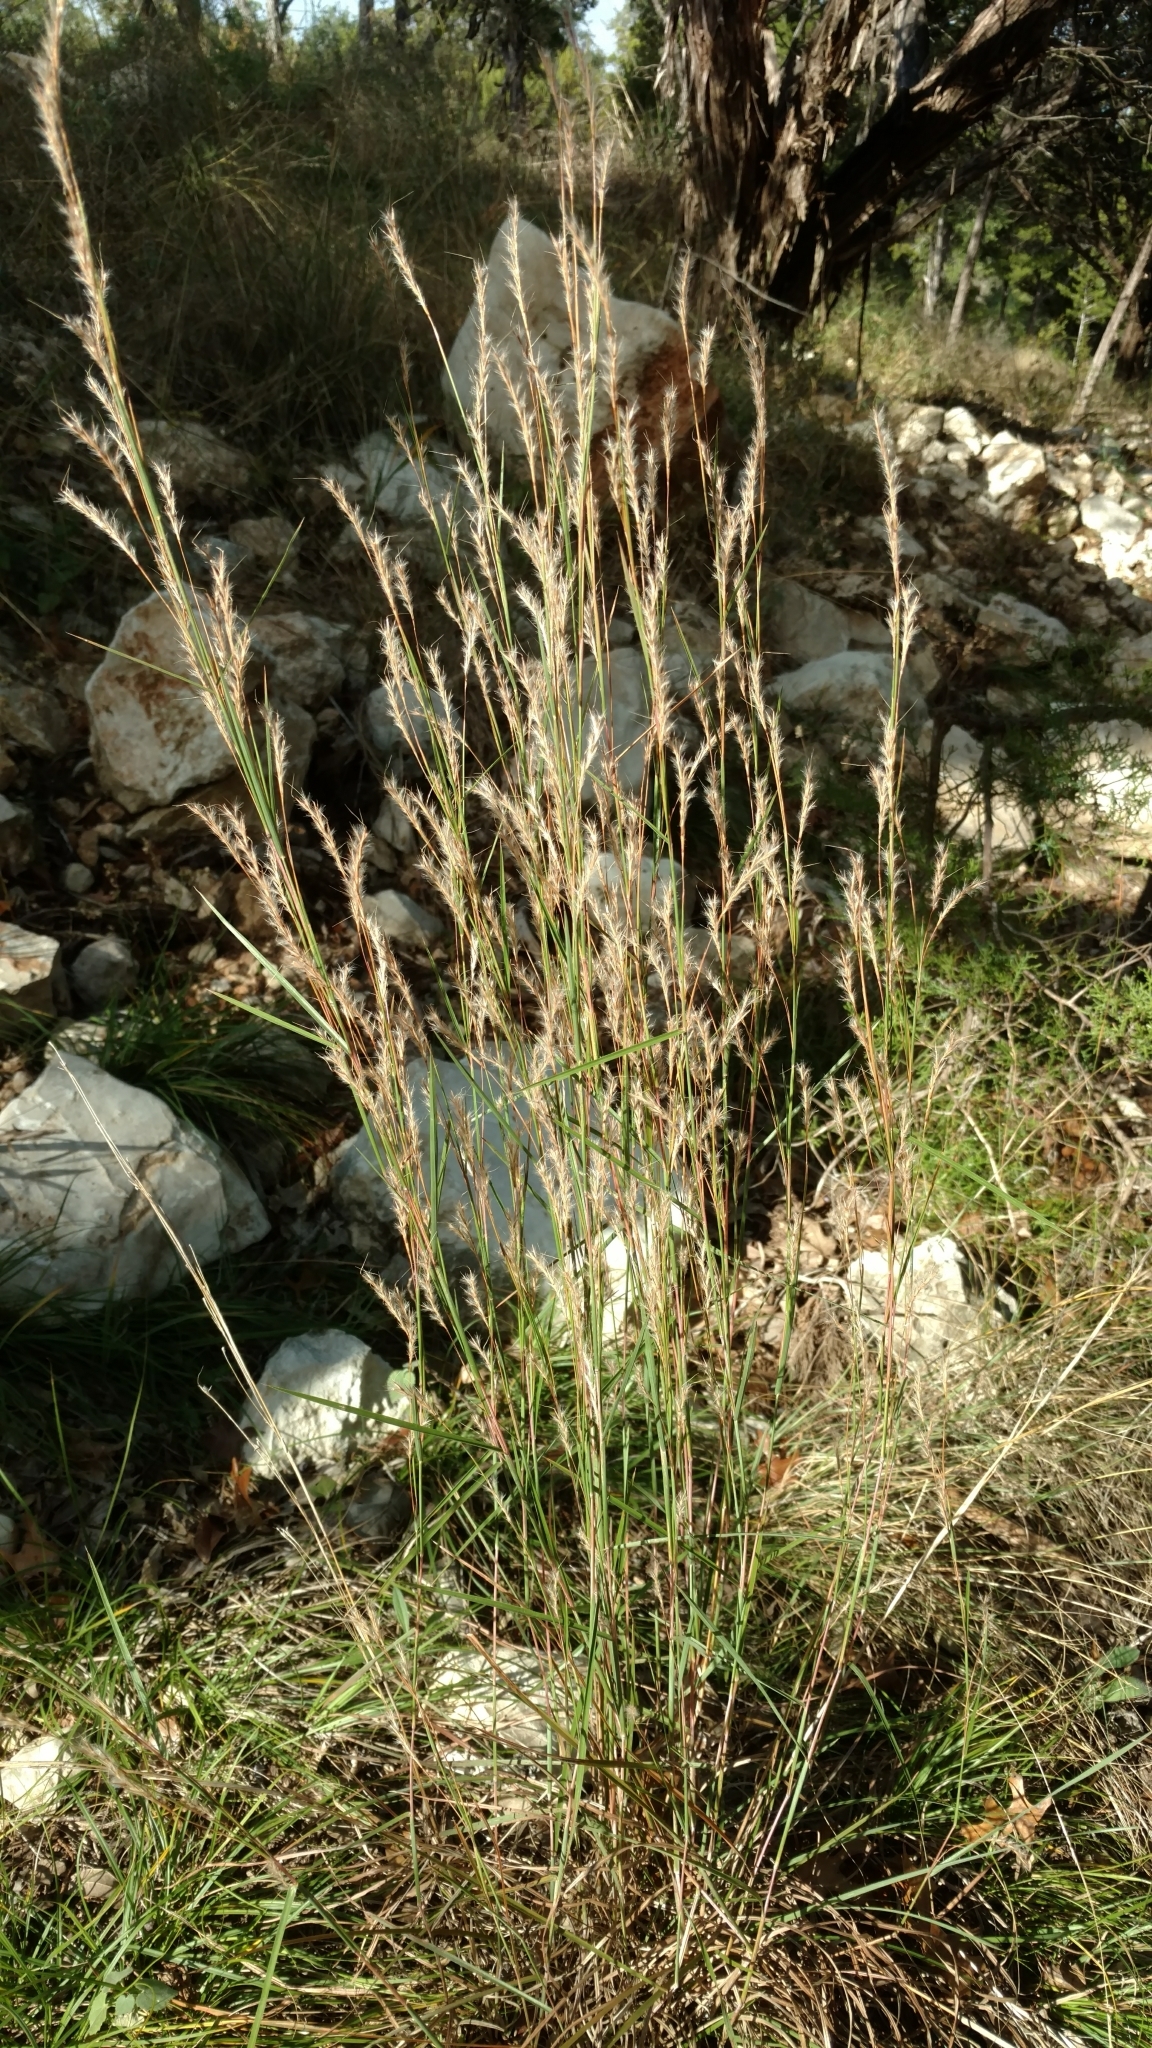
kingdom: Plantae
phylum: Tracheophyta
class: Liliopsida
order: Poales
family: Poaceae
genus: Schizachyrium
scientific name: Schizachyrium scoparium
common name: Little bluestem
